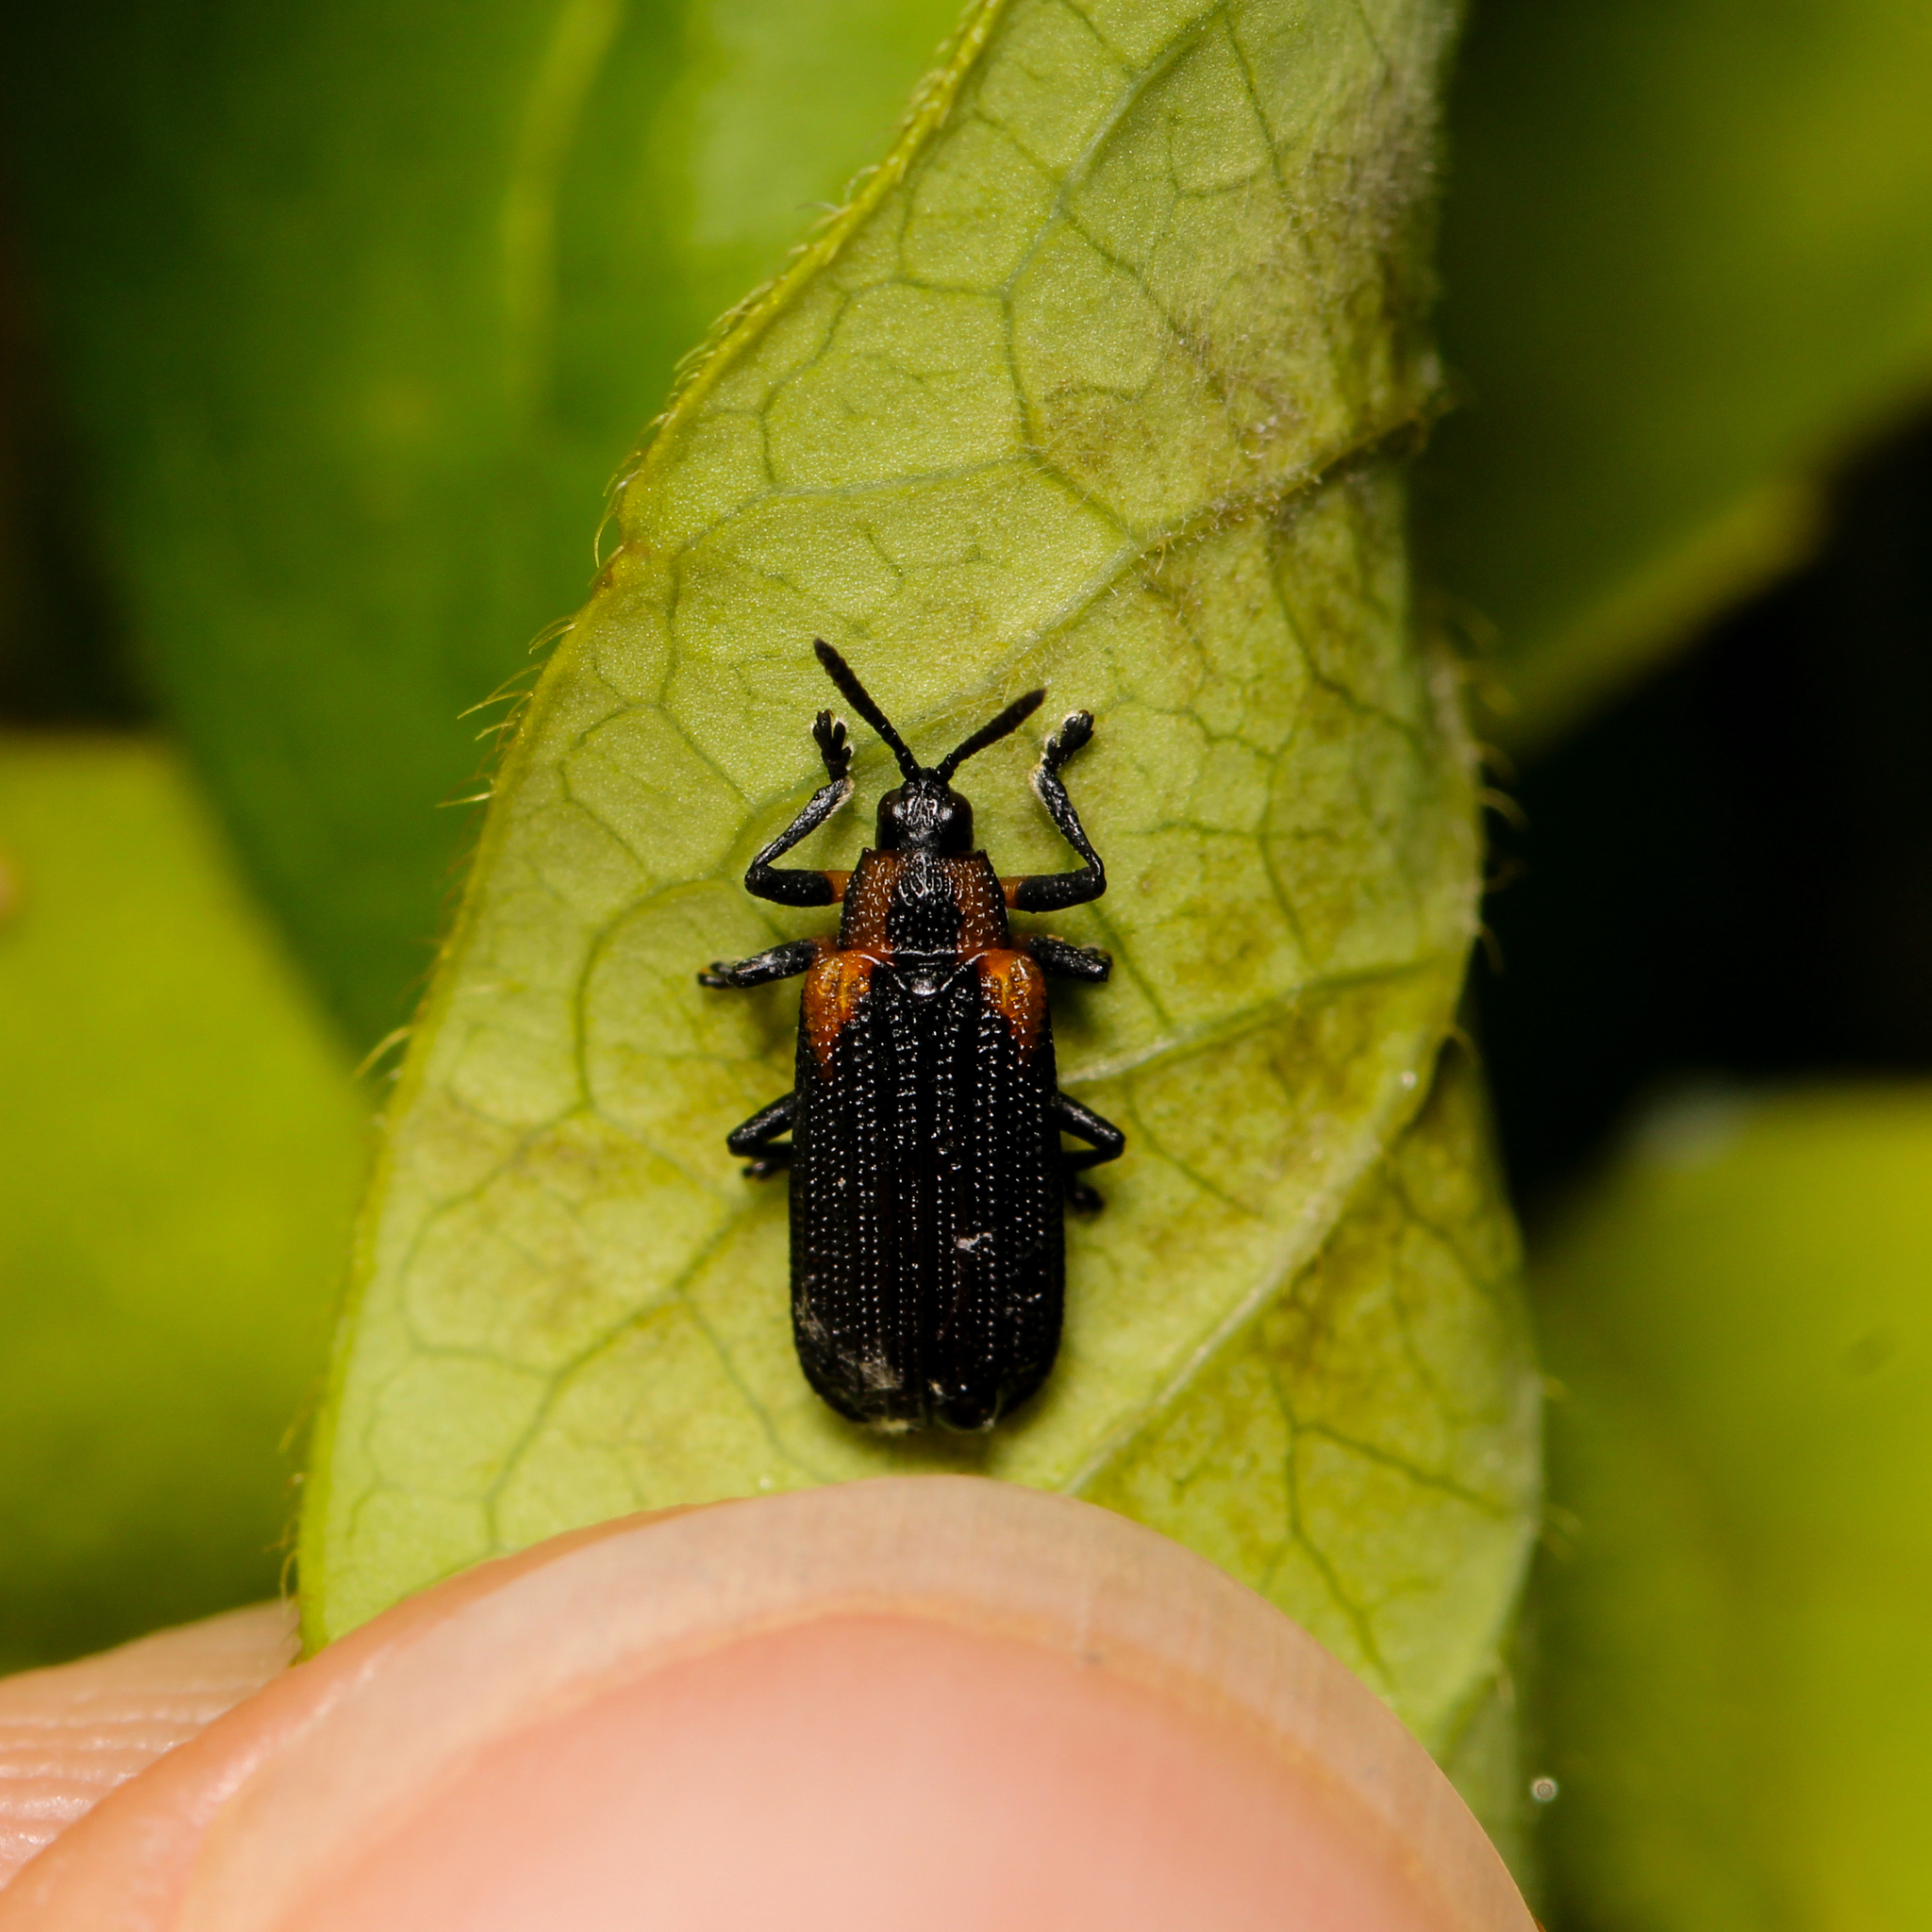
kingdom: Animalia
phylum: Arthropoda
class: Insecta
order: Coleoptera
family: Chrysomelidae
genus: Odontota
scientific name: Odontota scapularis
